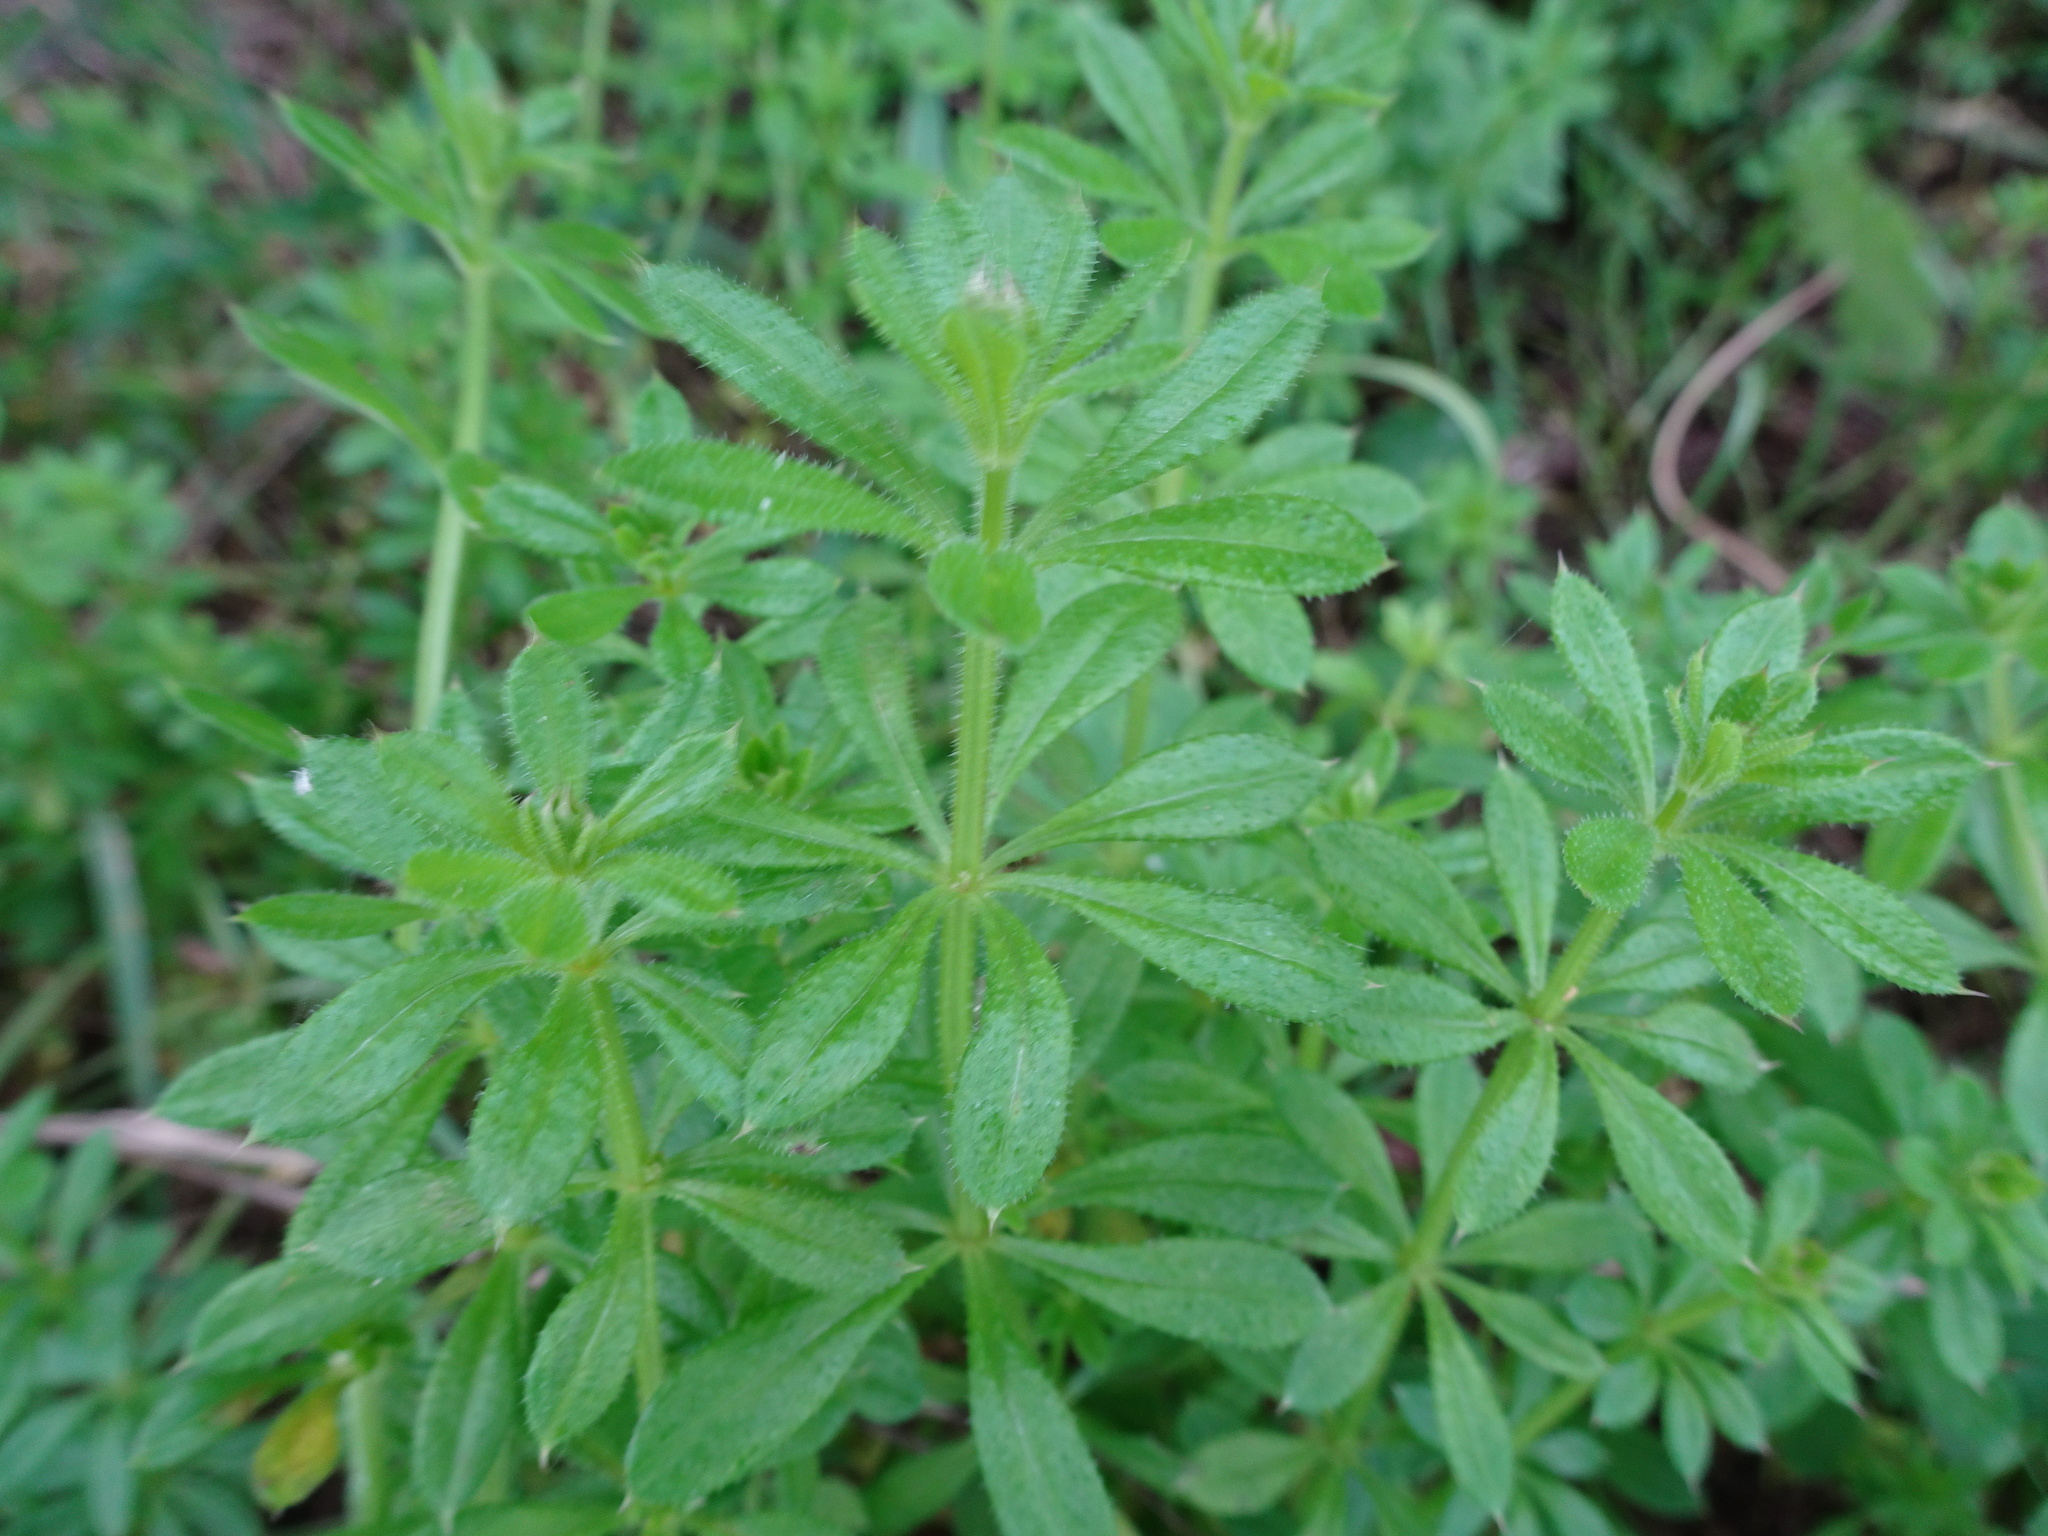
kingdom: Plantae
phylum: Tracheophyta
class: Magnoliopsida
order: Gentianales
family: Rubiaceae
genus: Galium
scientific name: Galium aparine
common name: Cleavers
